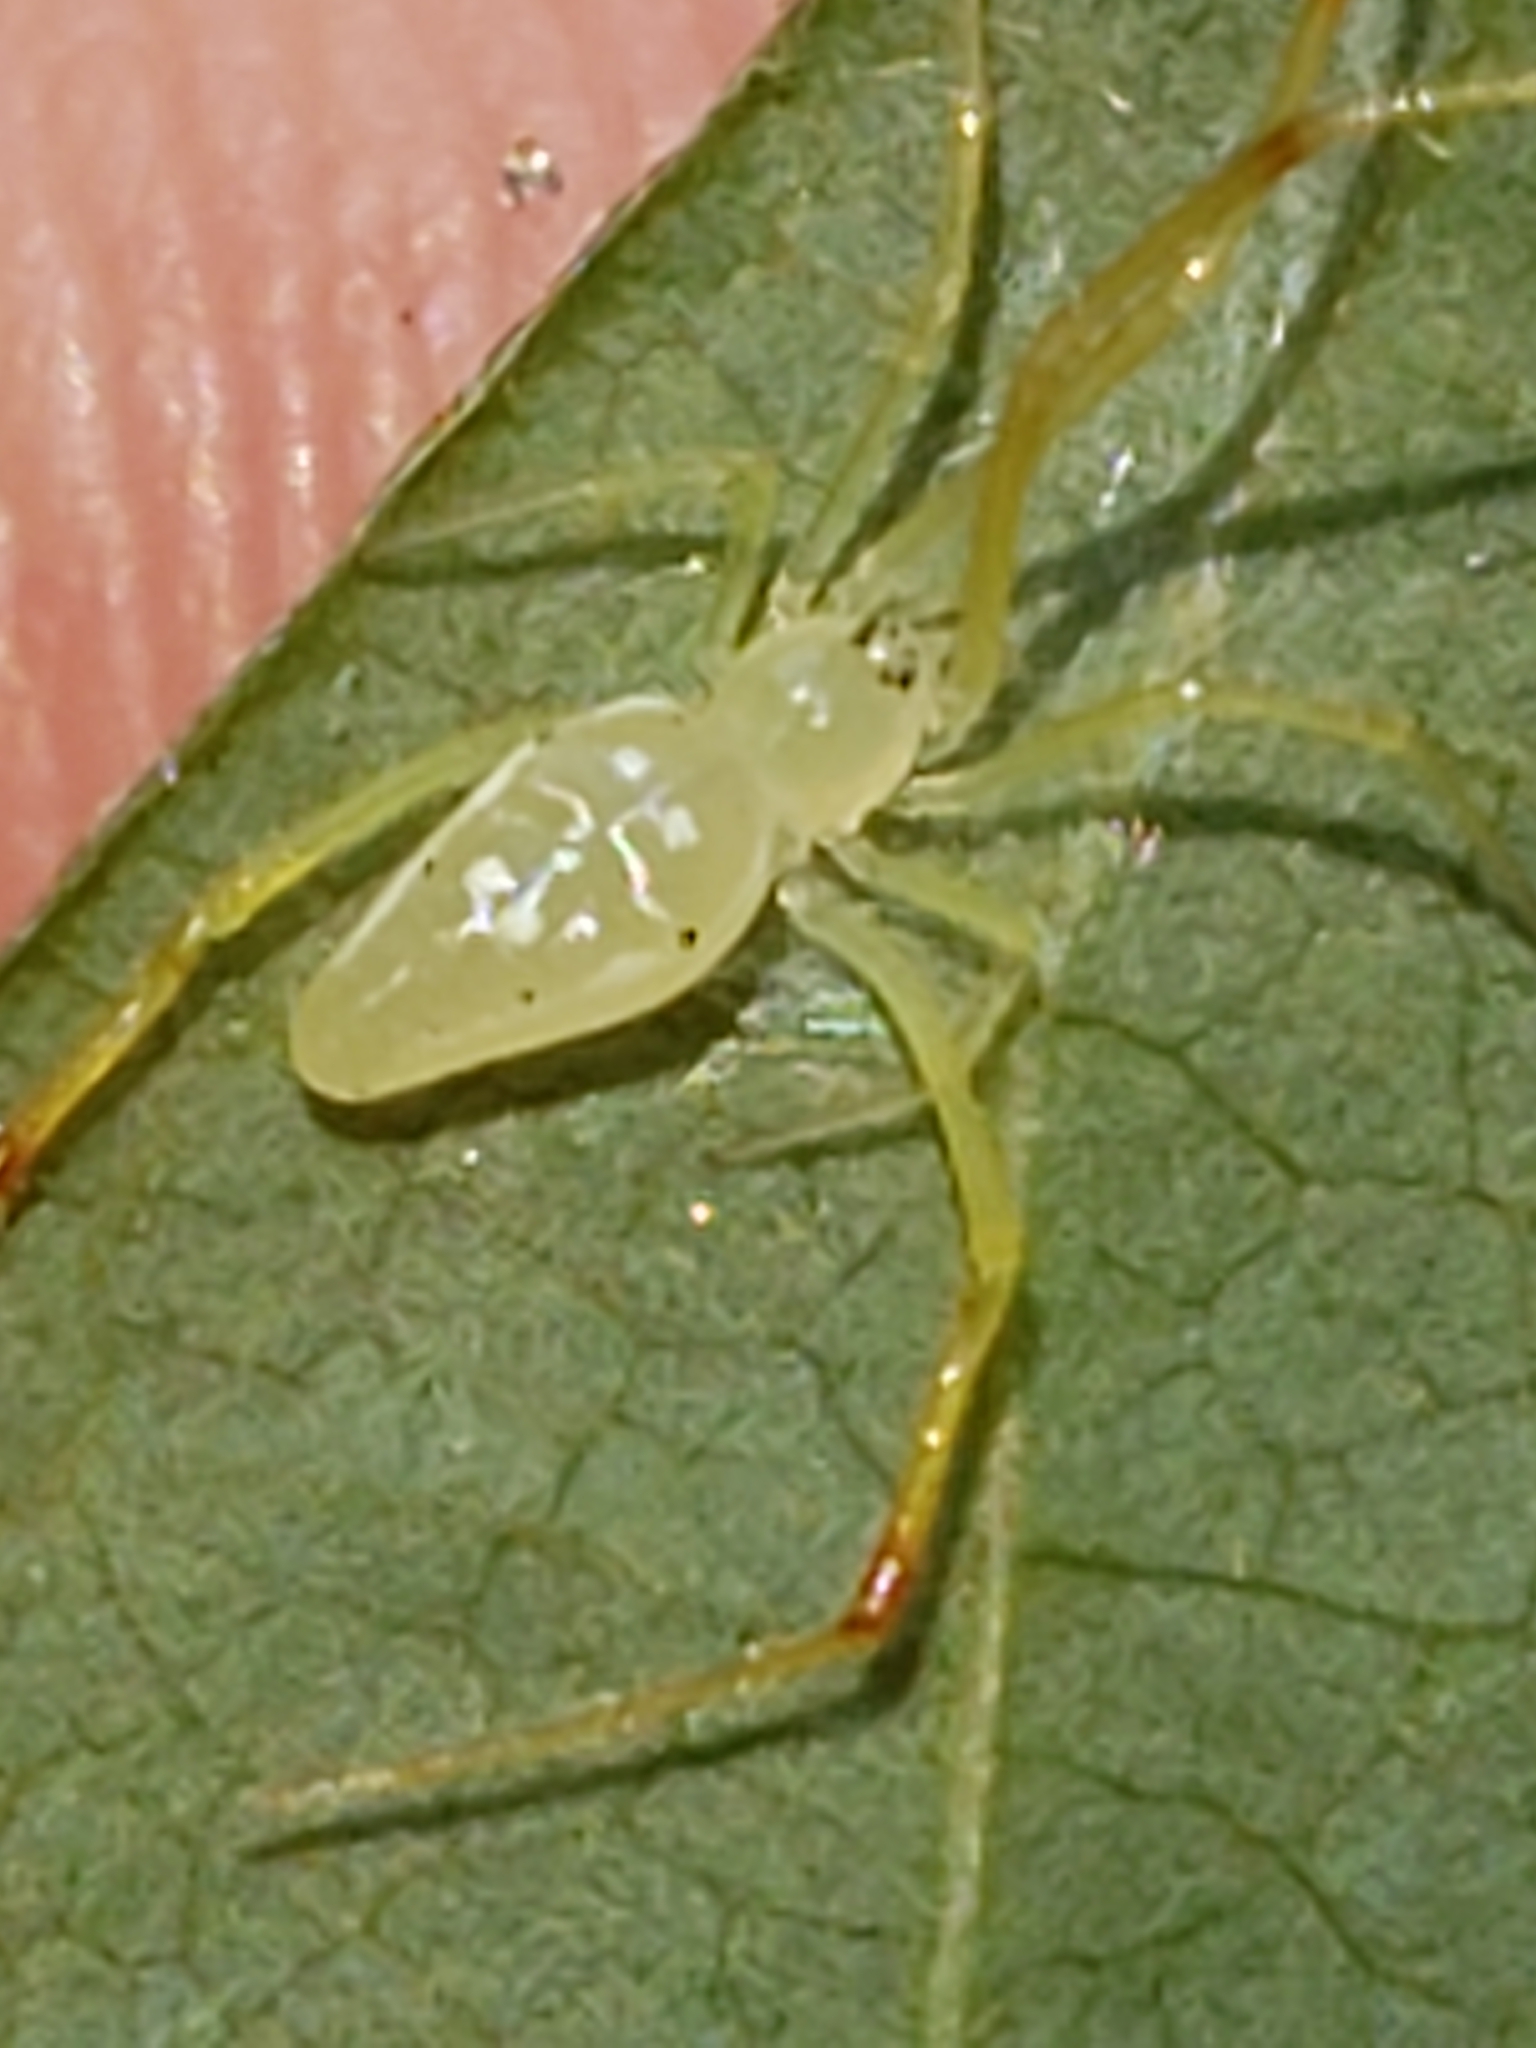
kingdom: Animalia
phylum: Arthropoda
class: Arachnida
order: Araneae
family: Theridiidae
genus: Spintharus
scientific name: Spintharus flavidus
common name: Cobweb spiders
